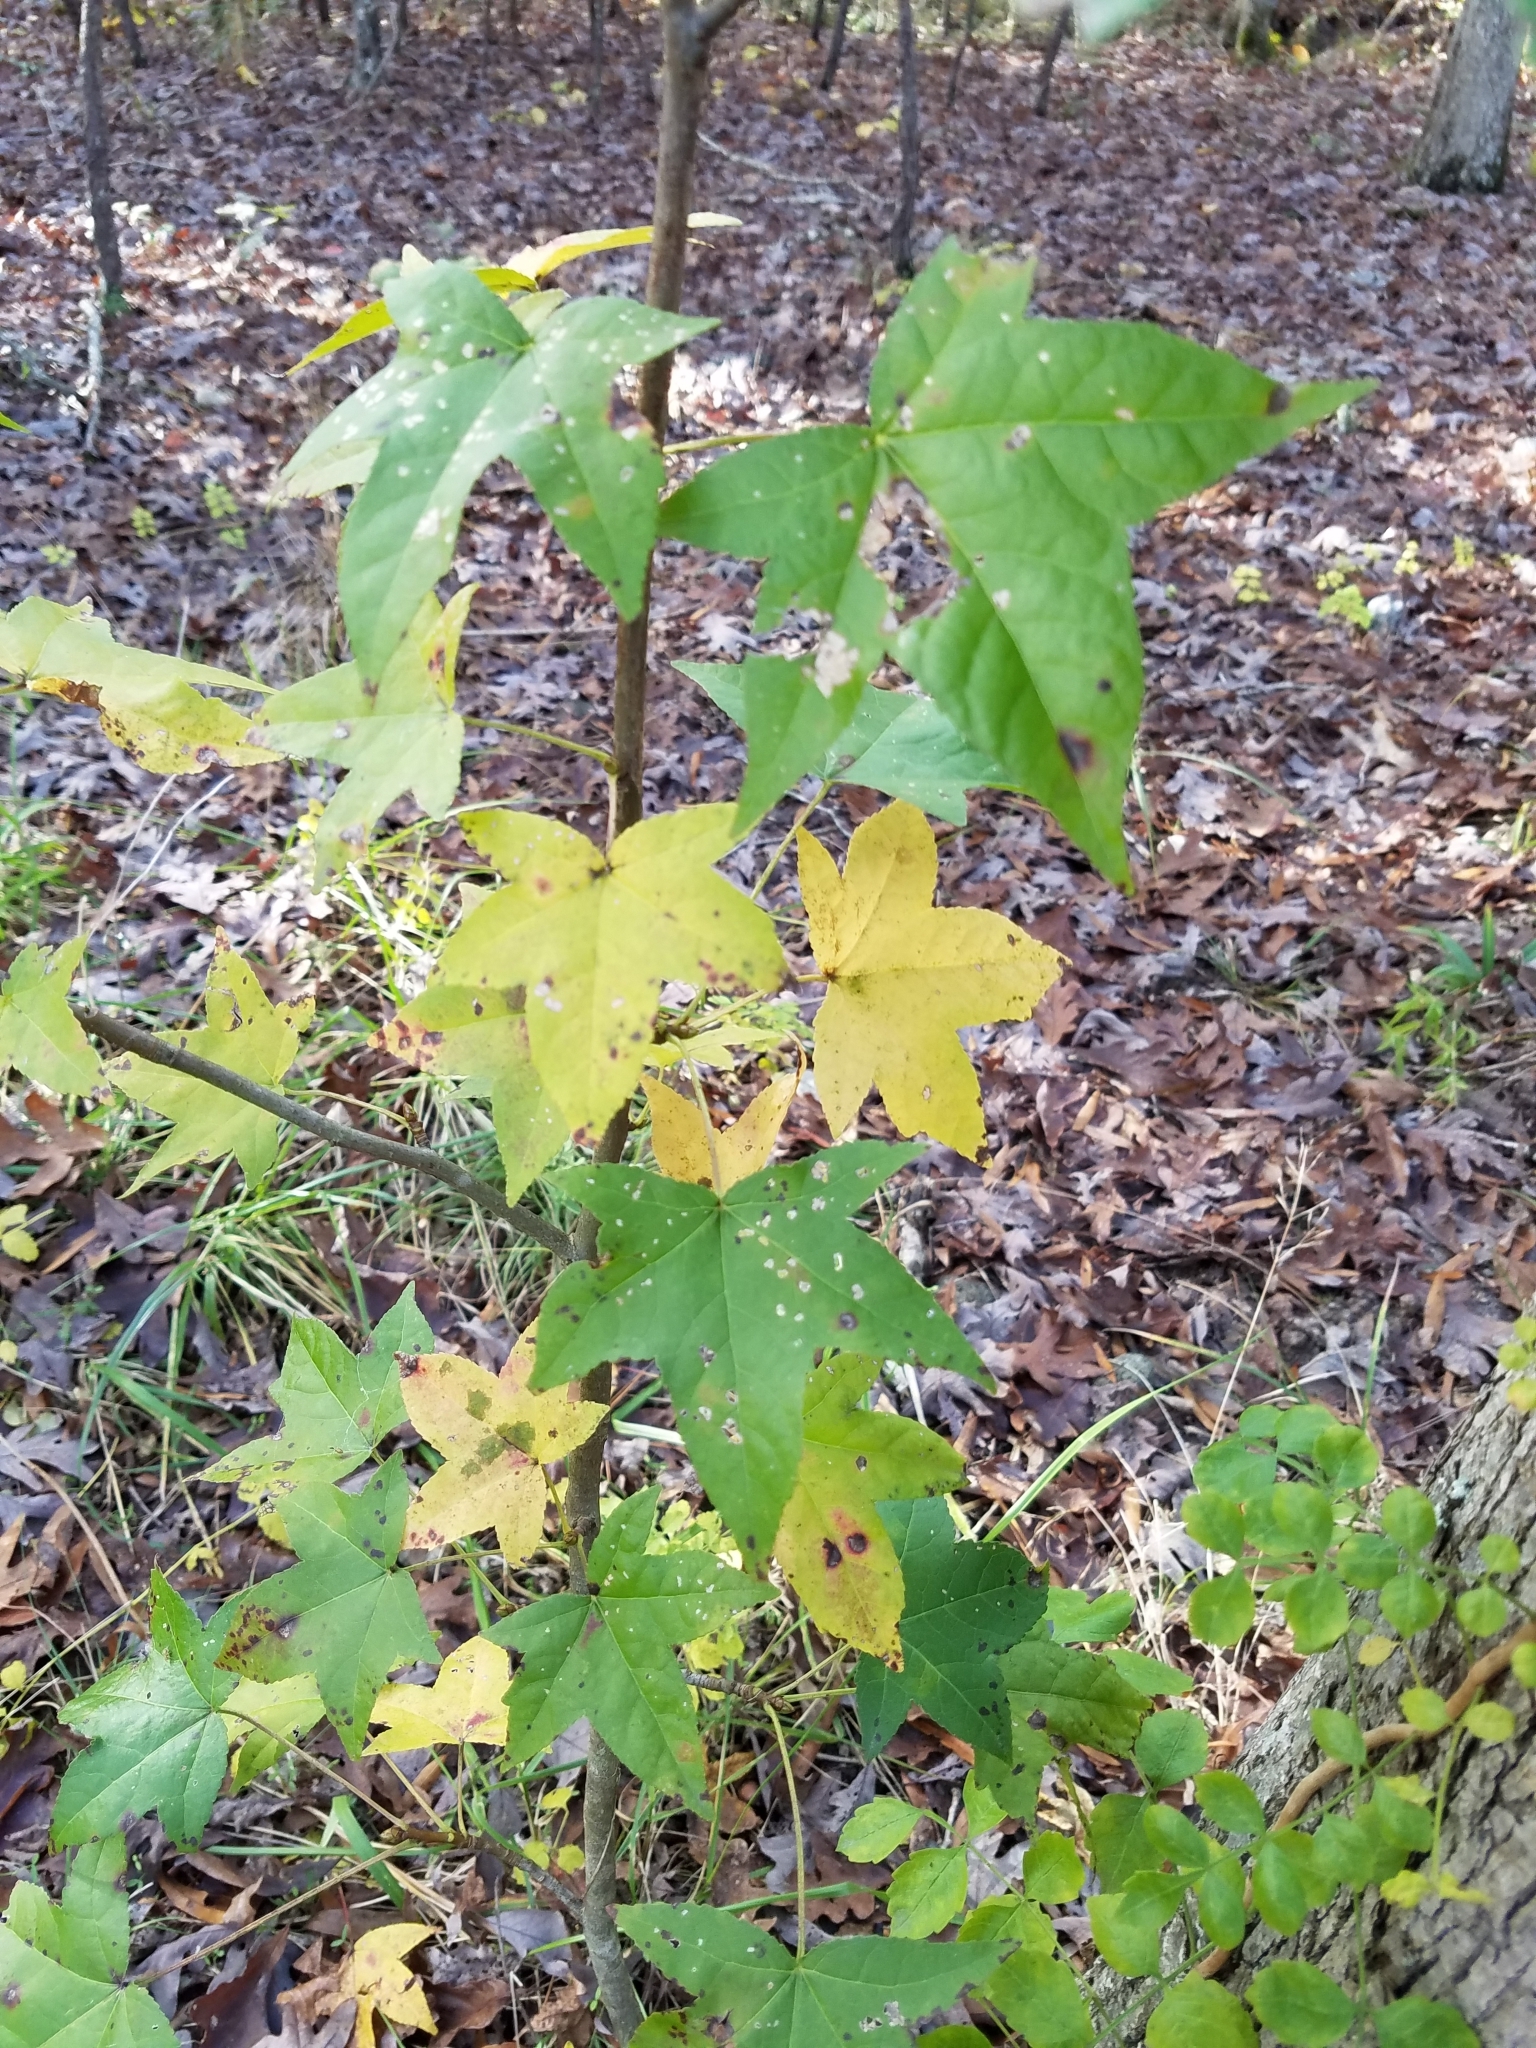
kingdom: Plantae
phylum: Tracheophyta
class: Magnoliopsida
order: Saxifragales
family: Altingiaceae
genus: Liquidambar
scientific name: Liquidambar styraciflua
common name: Sweet gum
